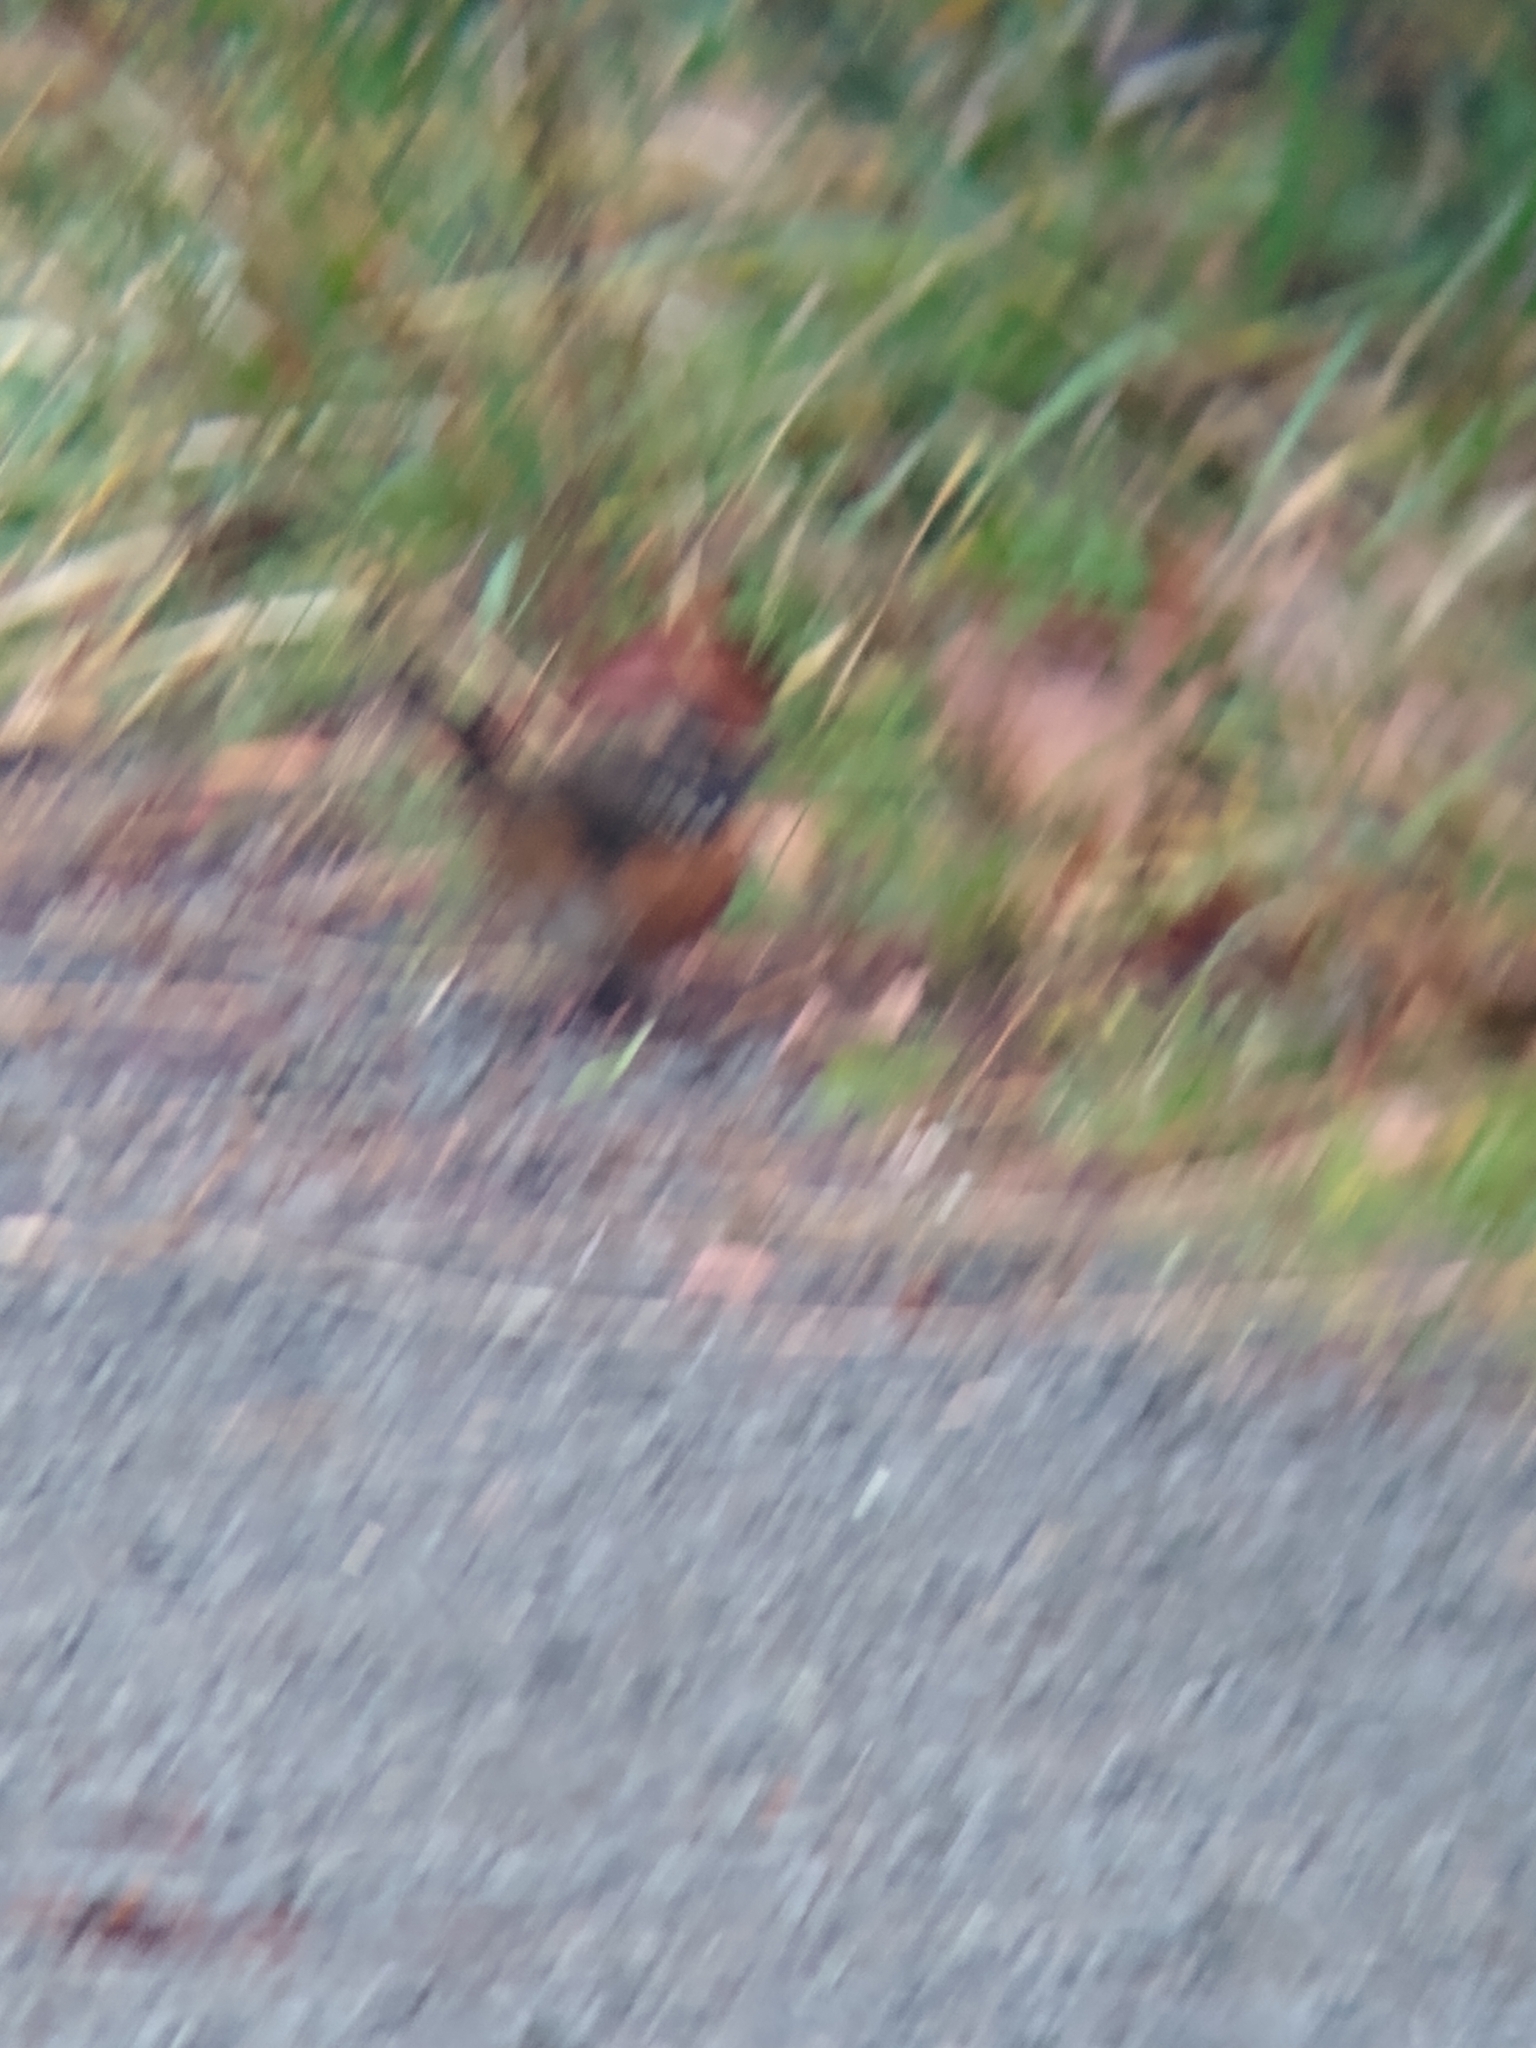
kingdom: Animalia
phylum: Chordata
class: Aves
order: Passeriformes
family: Passerellidae
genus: Pipilo
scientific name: Pipilo maculatus
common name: Spotted towhee
